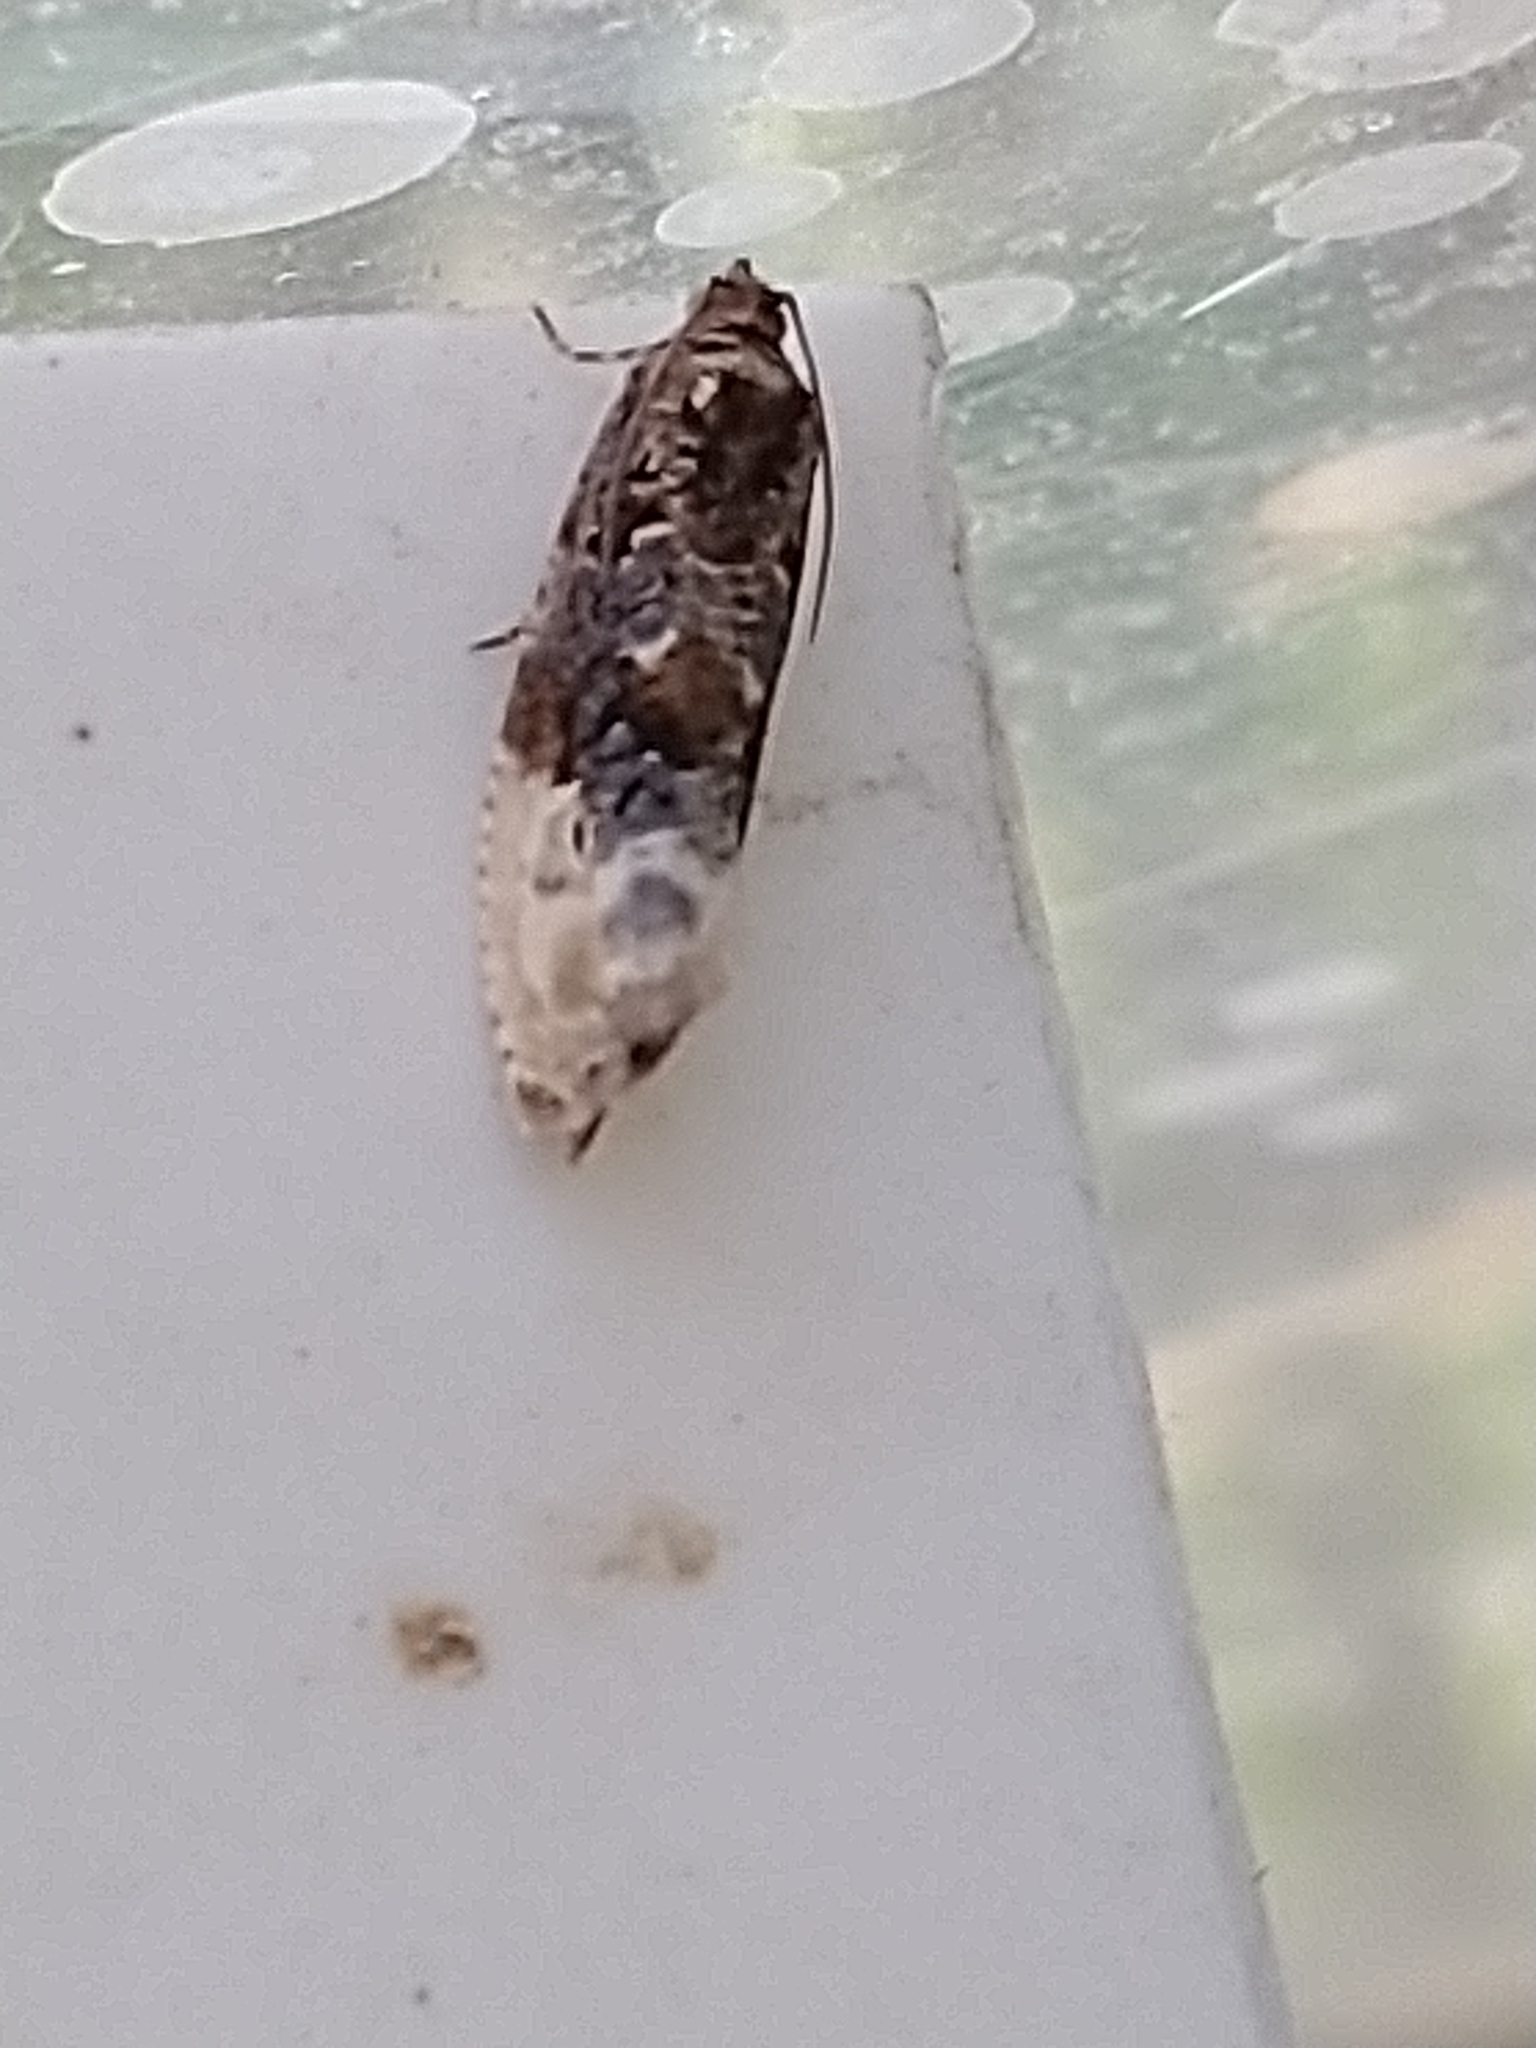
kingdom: Animalia
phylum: Arthropoda
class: Insecta
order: Lepidoptera
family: Tortricidae
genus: Hedya
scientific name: Hedya nubiferana
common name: Marbled orchard tortrix
